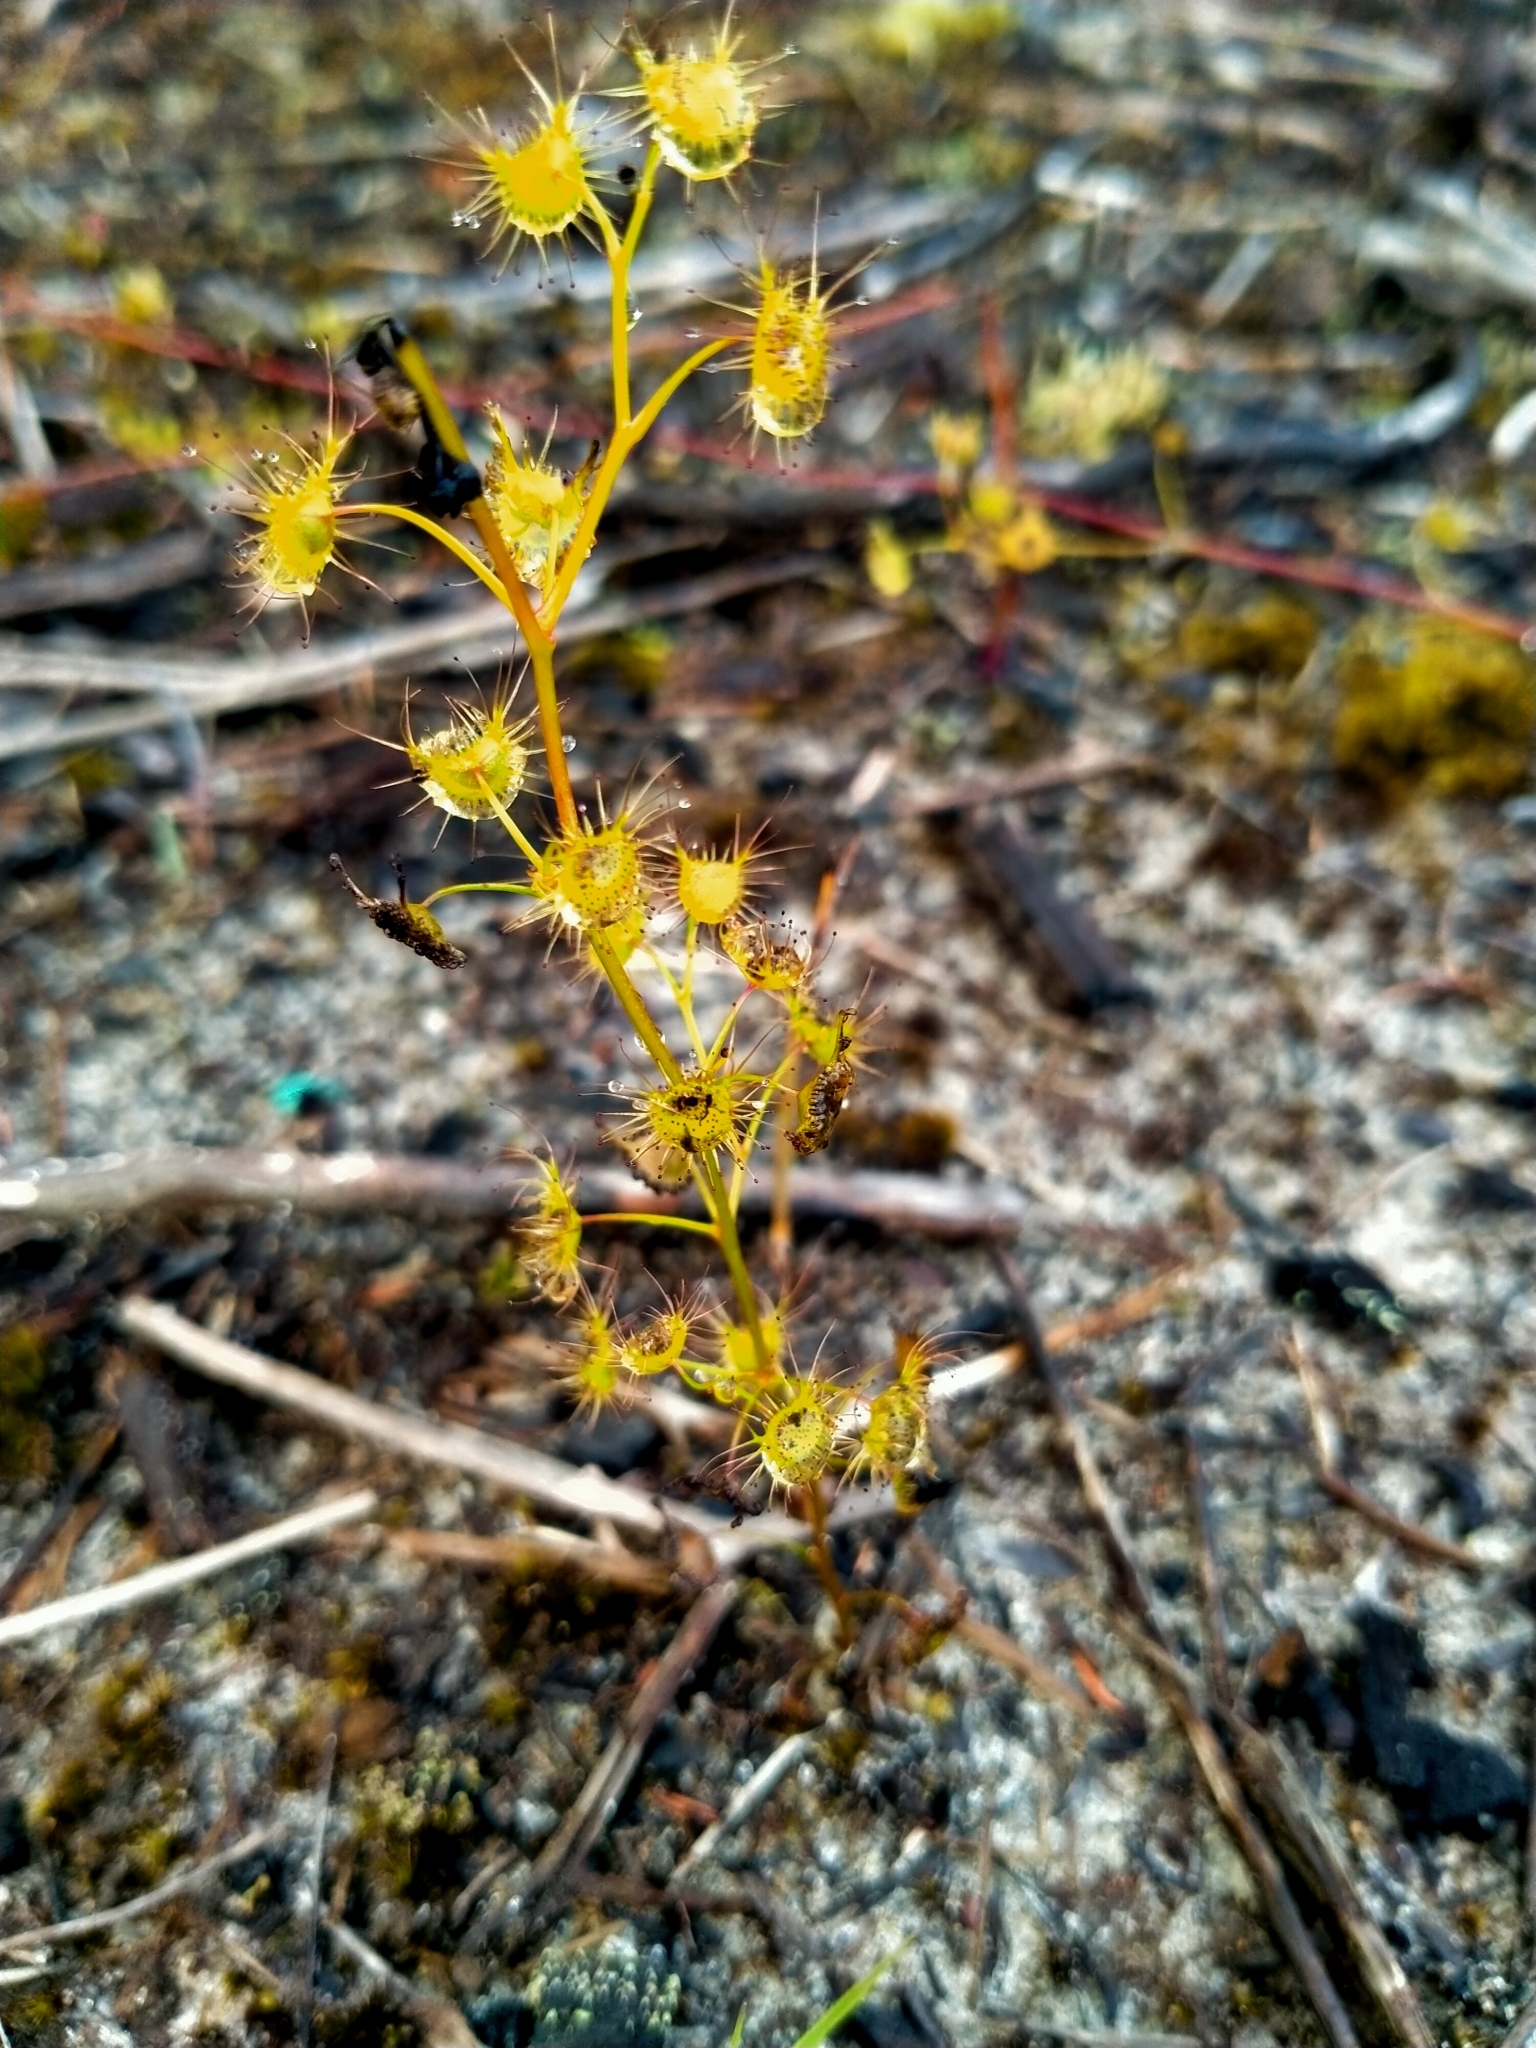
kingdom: Plantae
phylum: Tracheophyta
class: Magnoliopsida
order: Caryophyllales
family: Droseraceae
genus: Drosera
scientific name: Drosera peltata
